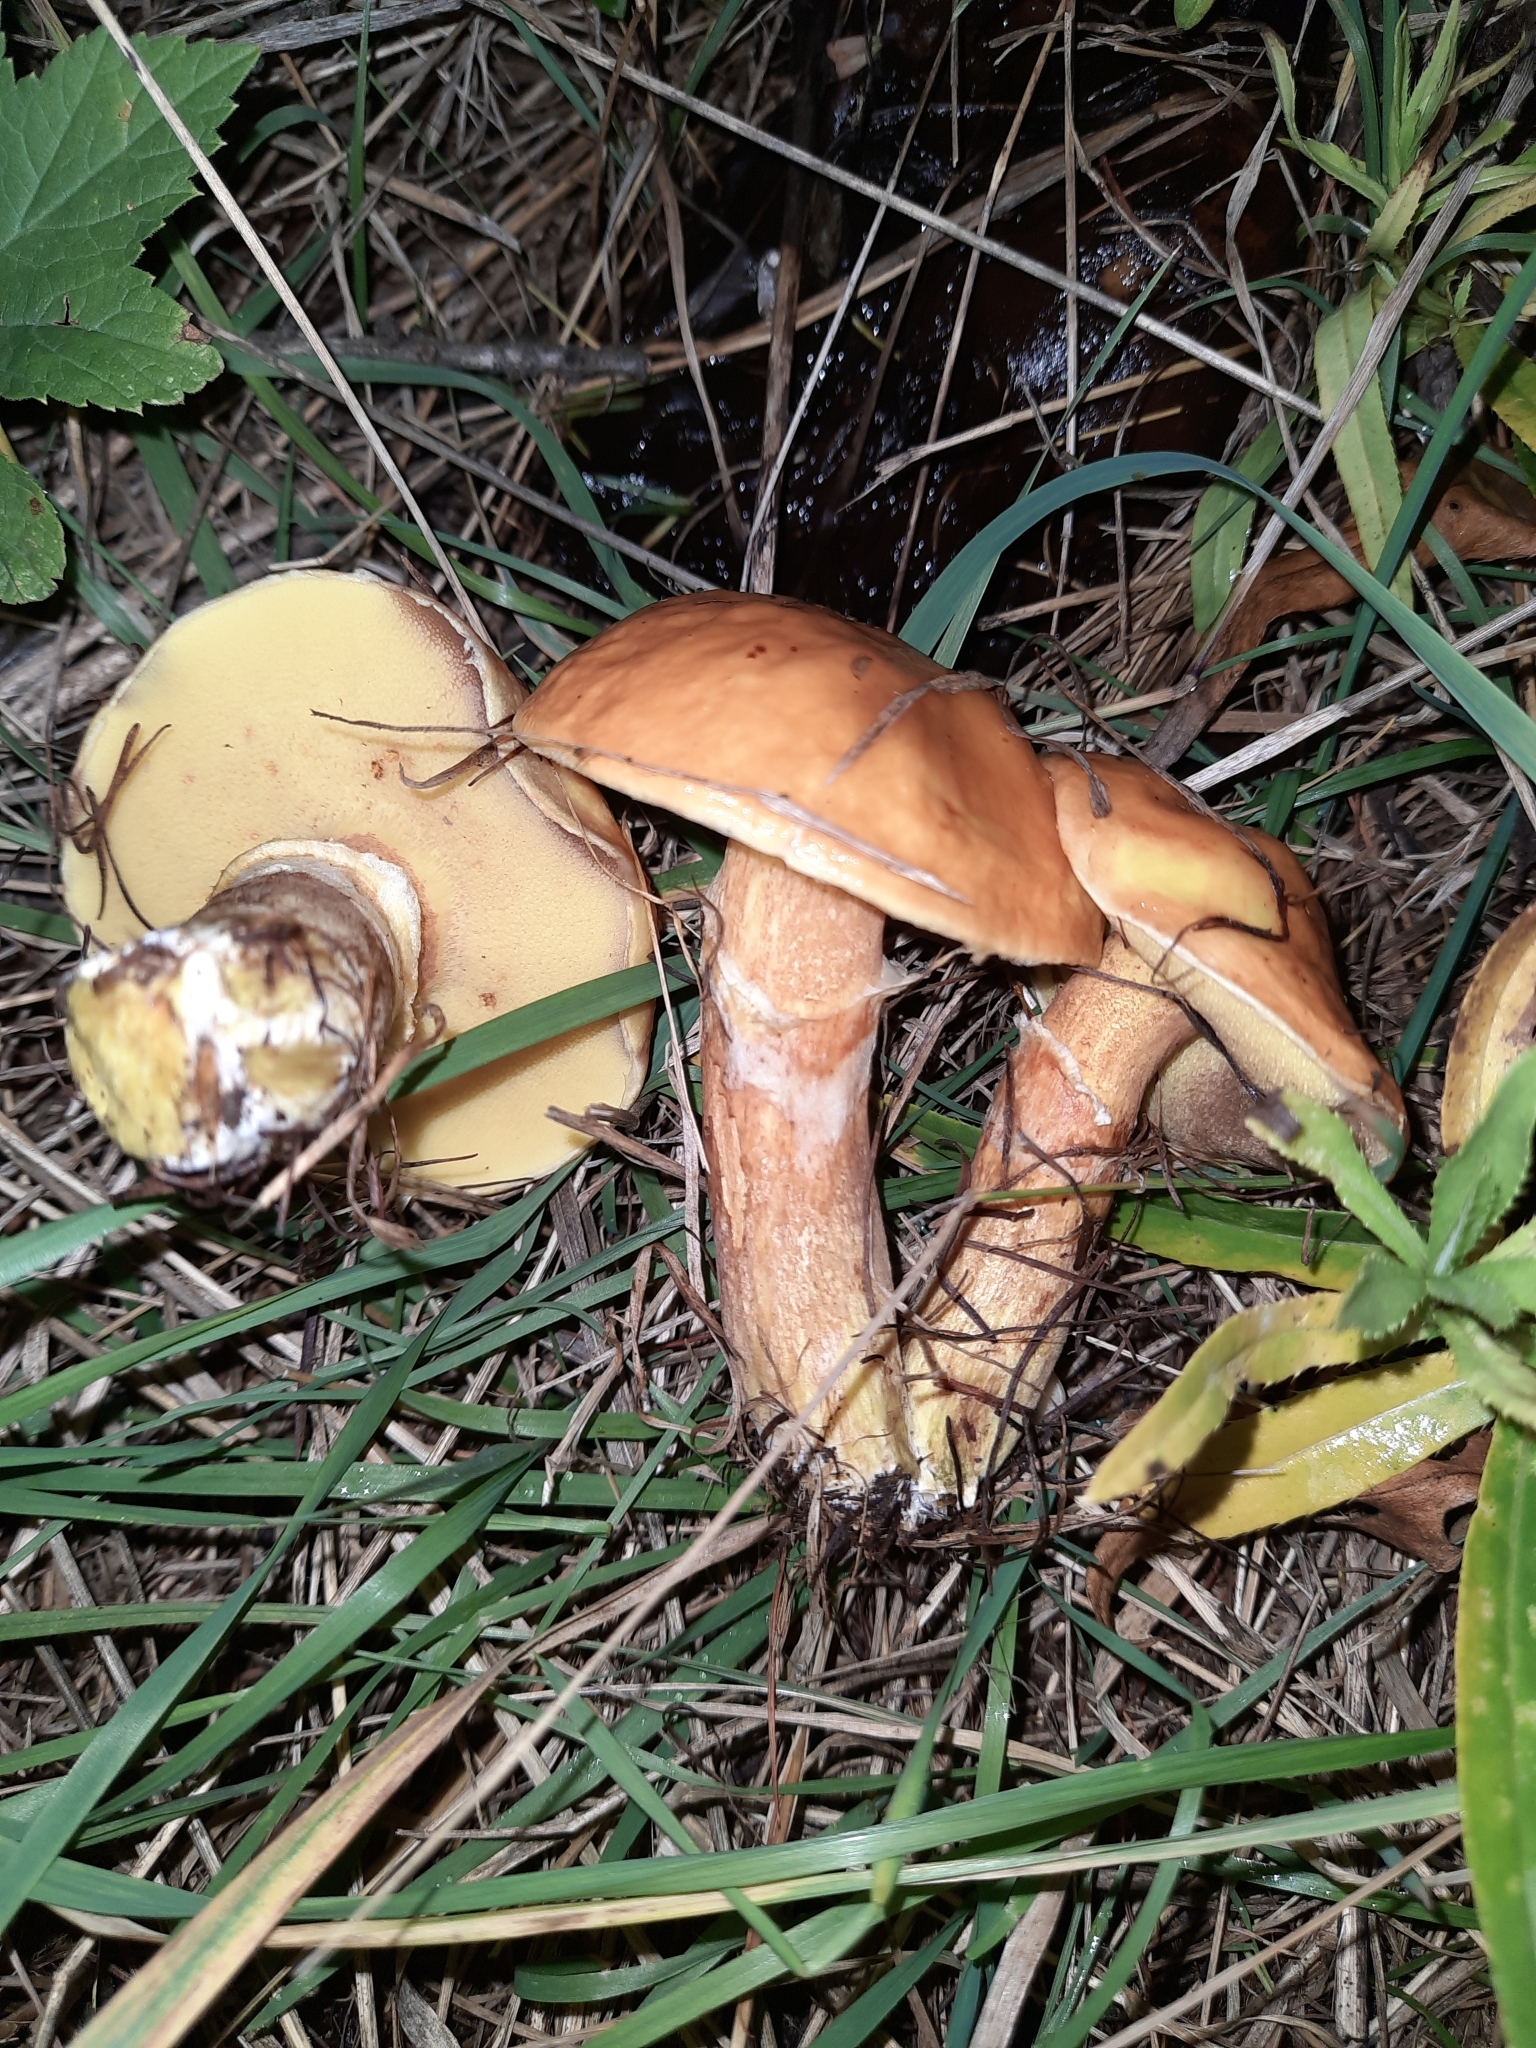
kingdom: Fungi
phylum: Basidiomycota
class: Agaricomycetes
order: Boletales
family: Suillaceae
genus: Suillus
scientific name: Suillus grevillei
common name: Larch bolete
